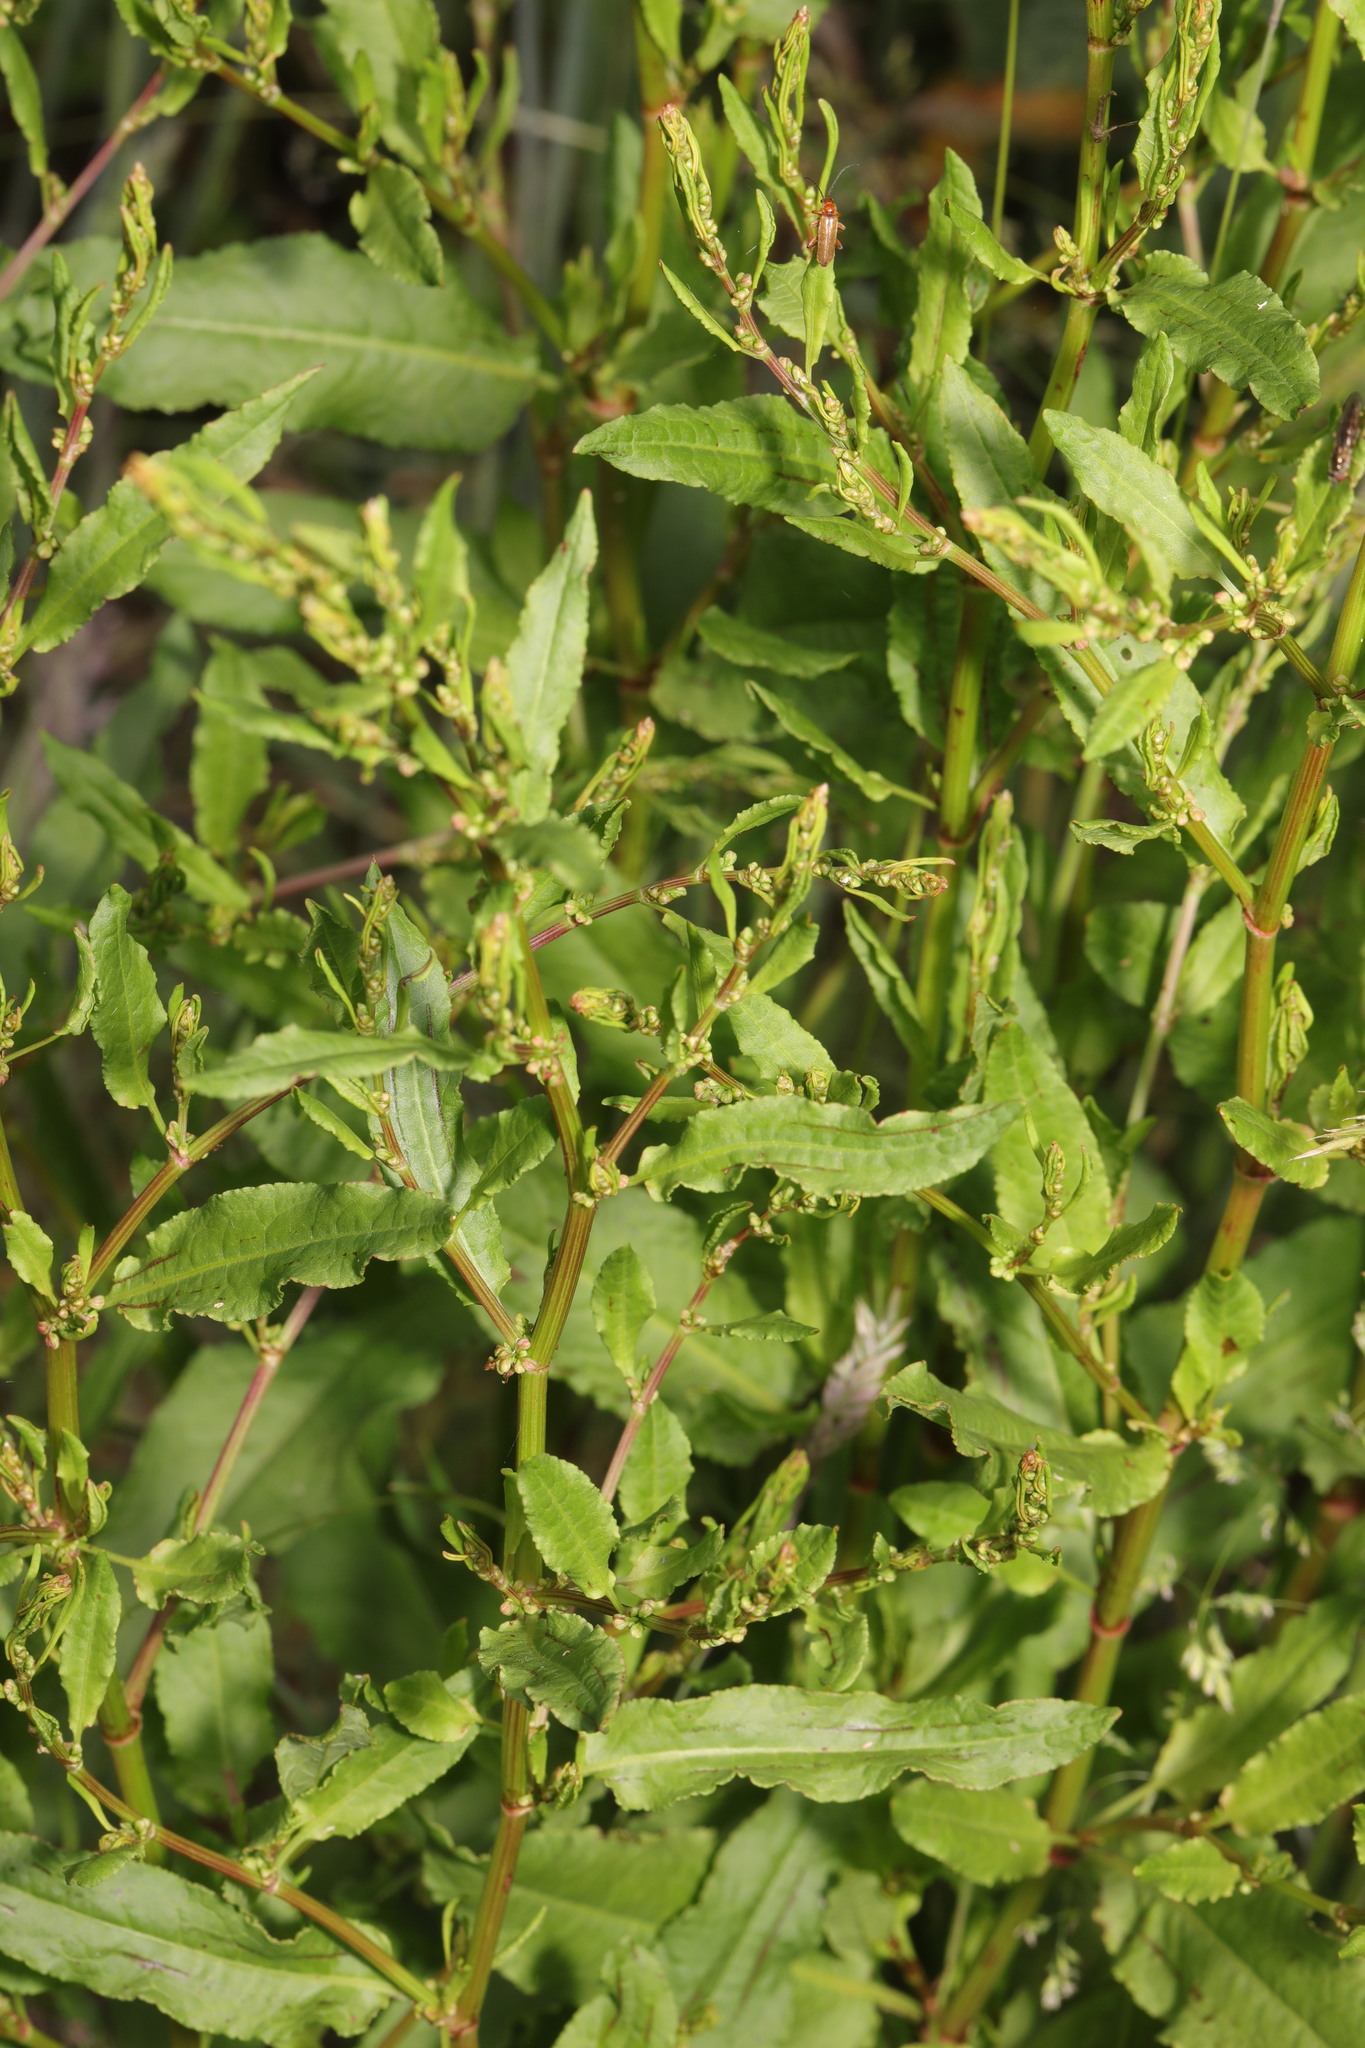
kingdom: Plantae
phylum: Tracheophyta
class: Magnoliopsida
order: Caryophyllales
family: Polygonaceae
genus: Rumex
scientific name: Rumex sanguineus
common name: Wood dock
